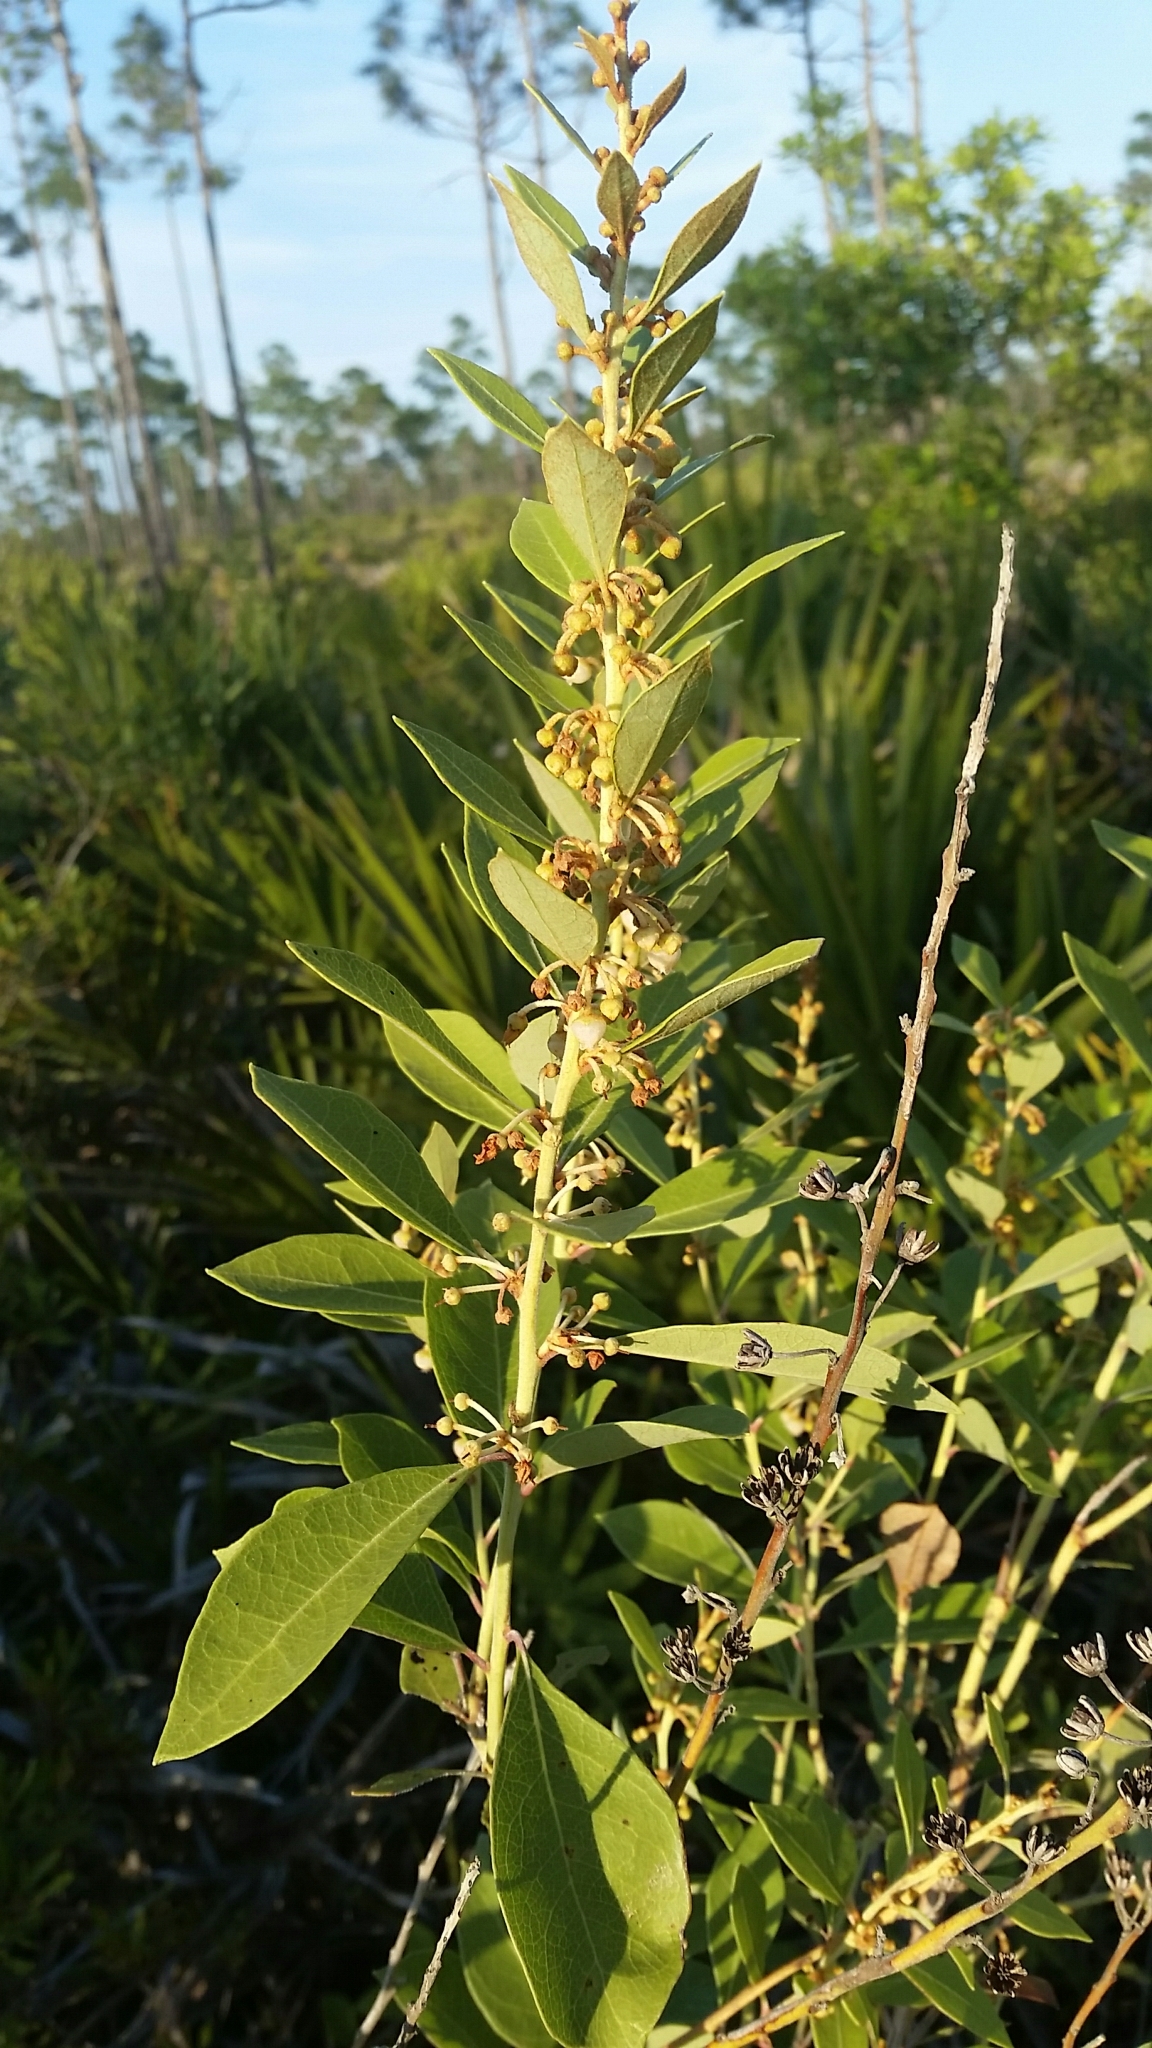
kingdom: Plantae
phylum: Tracheophyta
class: Magnoliopsida
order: Ericales
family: Ericaceae
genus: Lyonia
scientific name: Lyonia fruticosa
